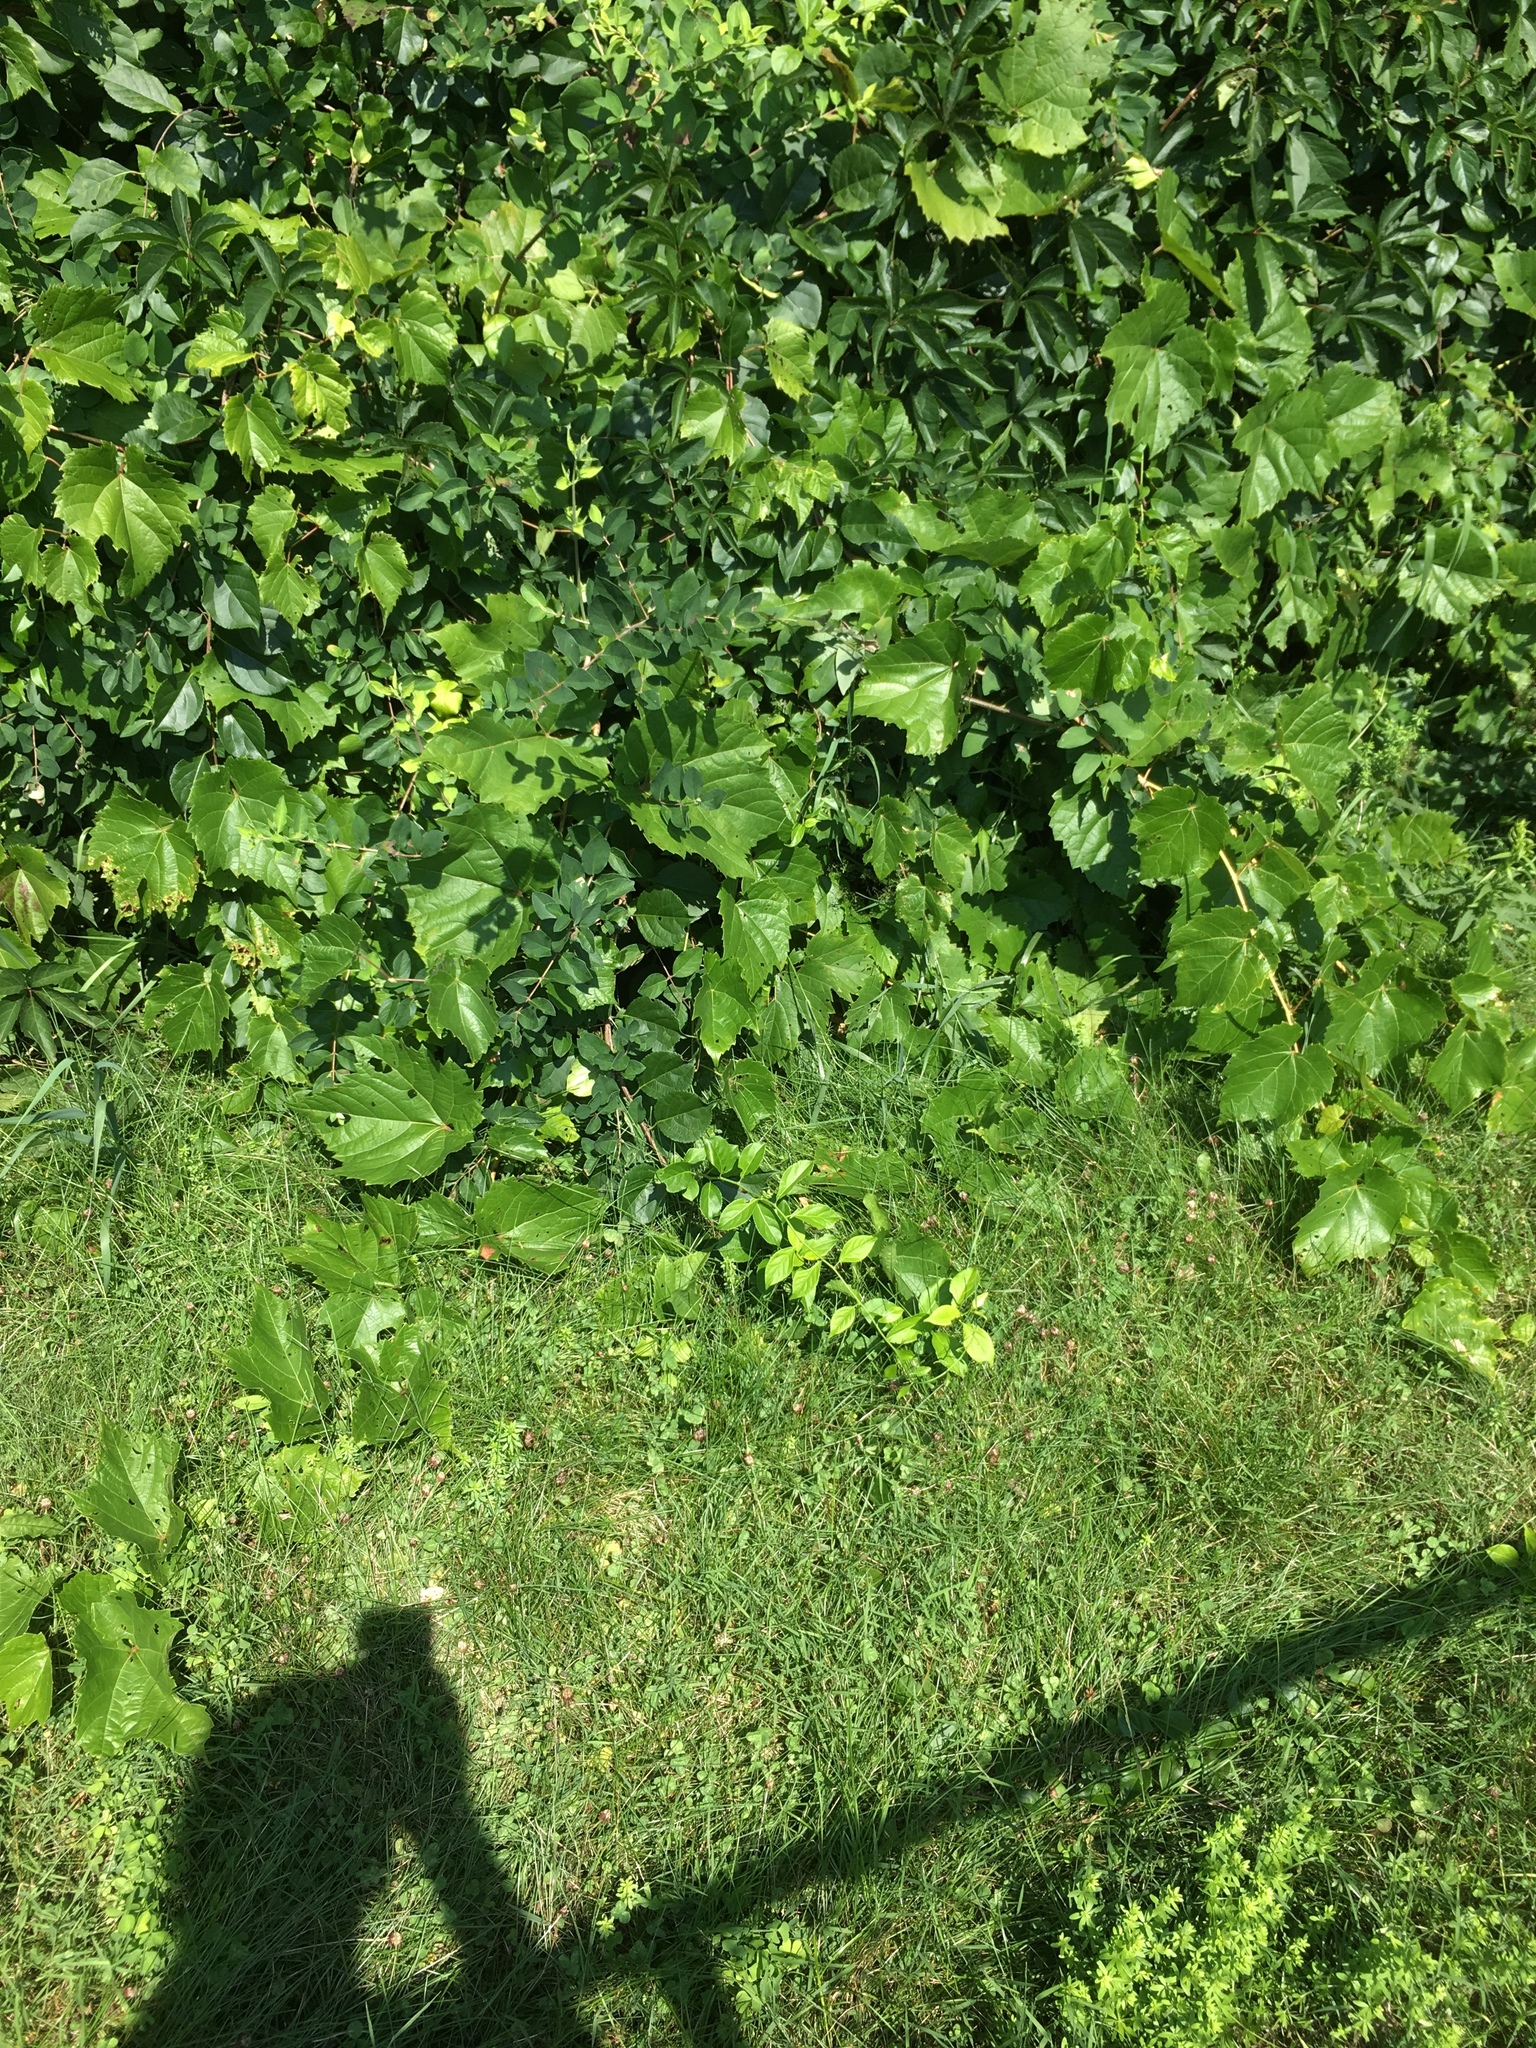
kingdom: Plantae
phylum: Tracheophyta
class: Magnoliopsida
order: Vitales
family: Vitaceae
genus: Vitis
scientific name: Vitis riparia
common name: Frost grape
